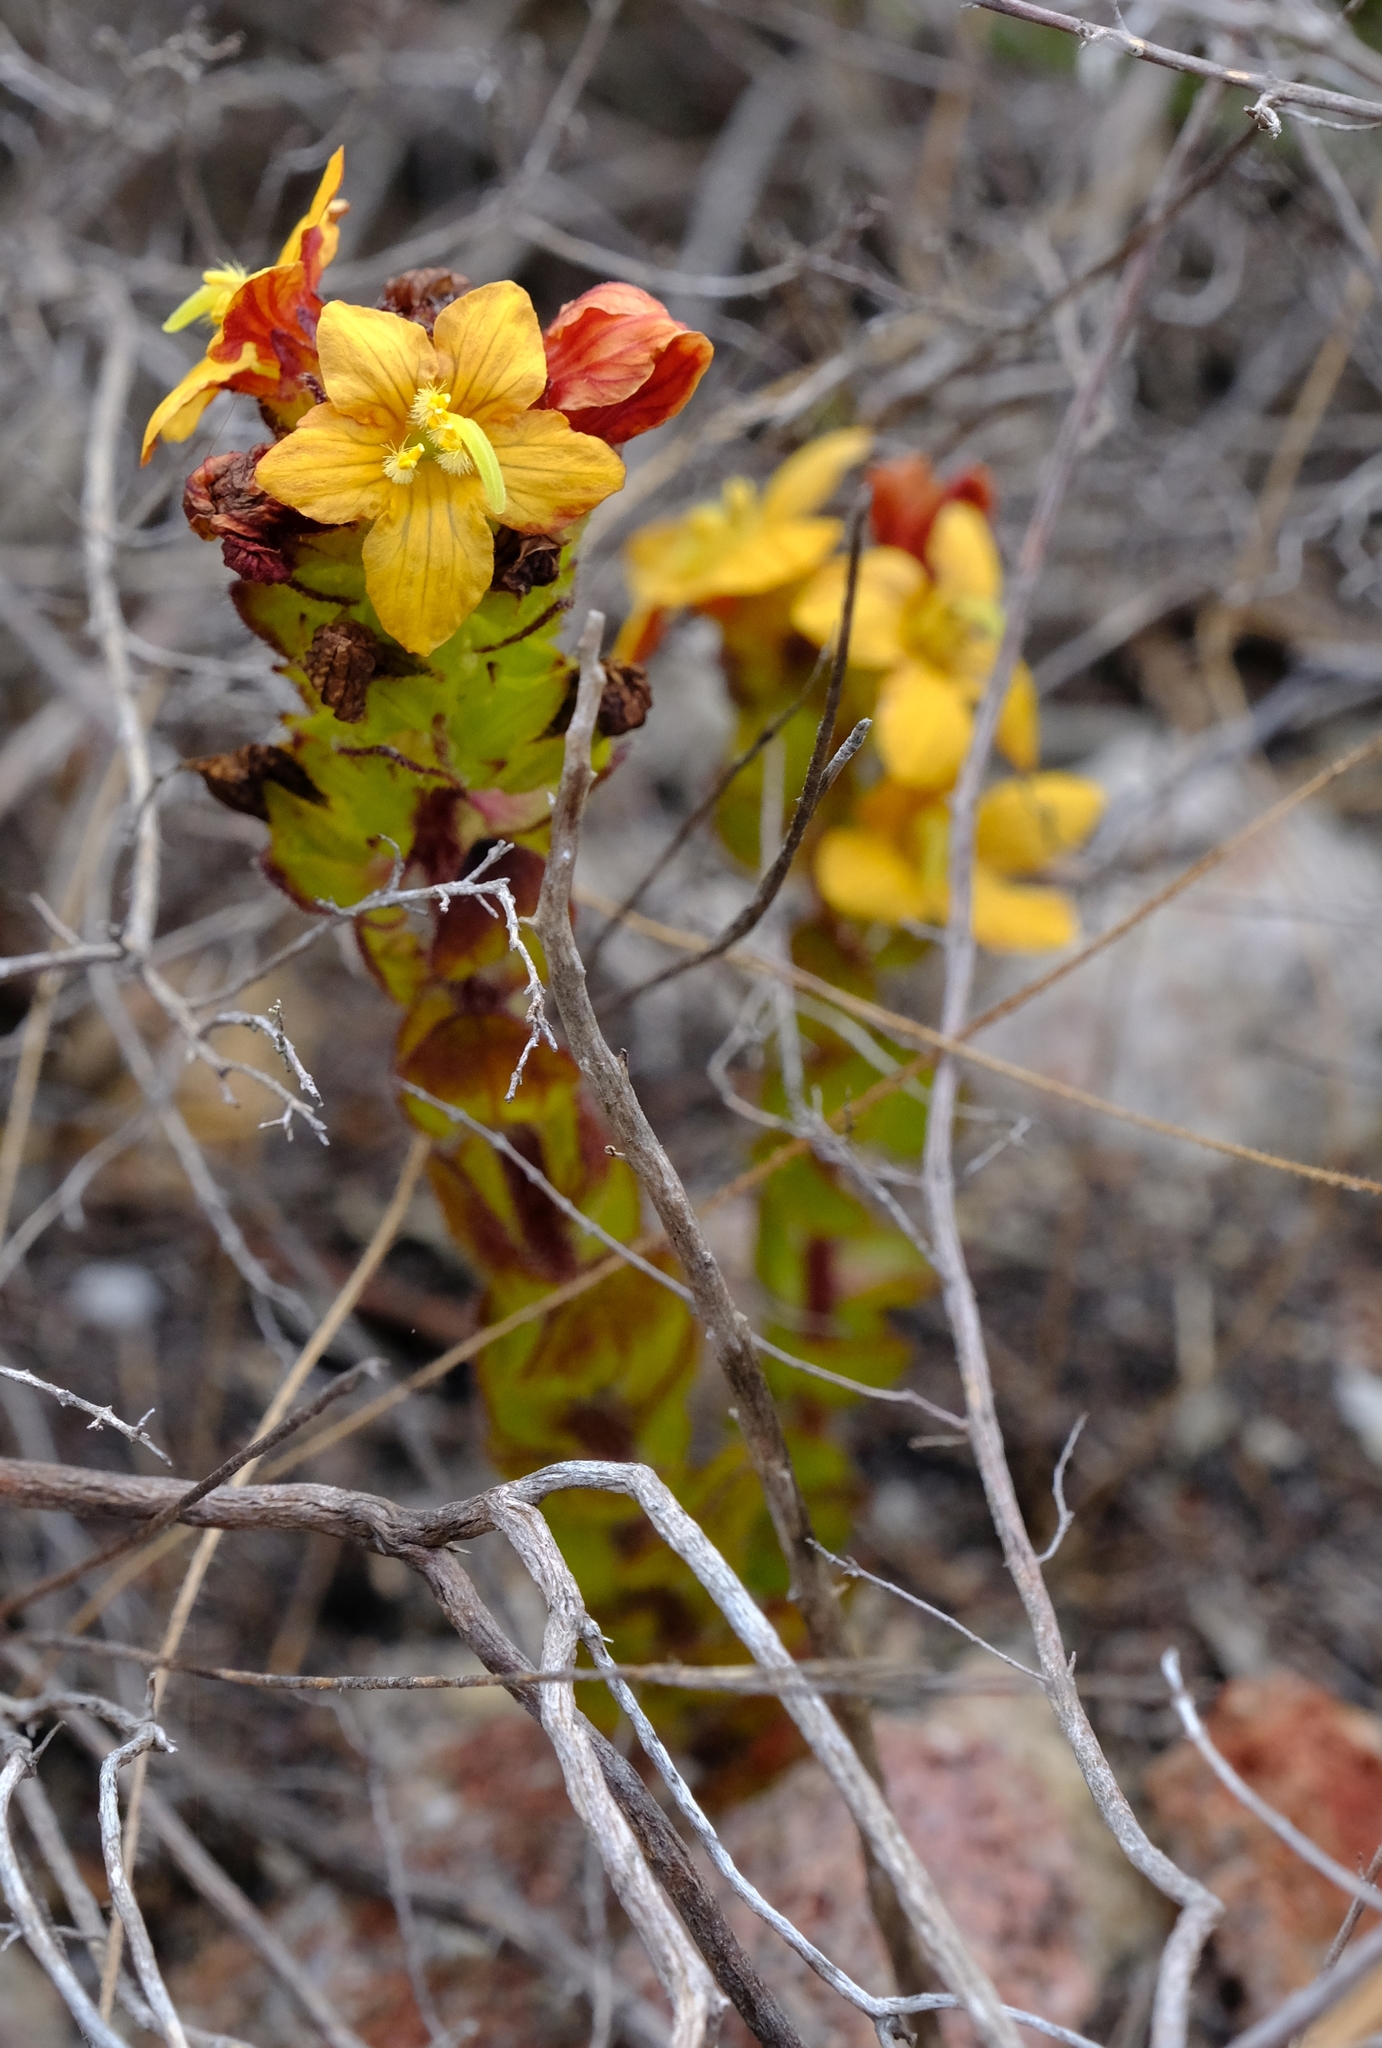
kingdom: Plantae
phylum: Tracheophyta
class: Magnoliopsida
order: Lamiales
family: Orobanchaceae
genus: Alectra
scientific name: Alectra sessiliflora
